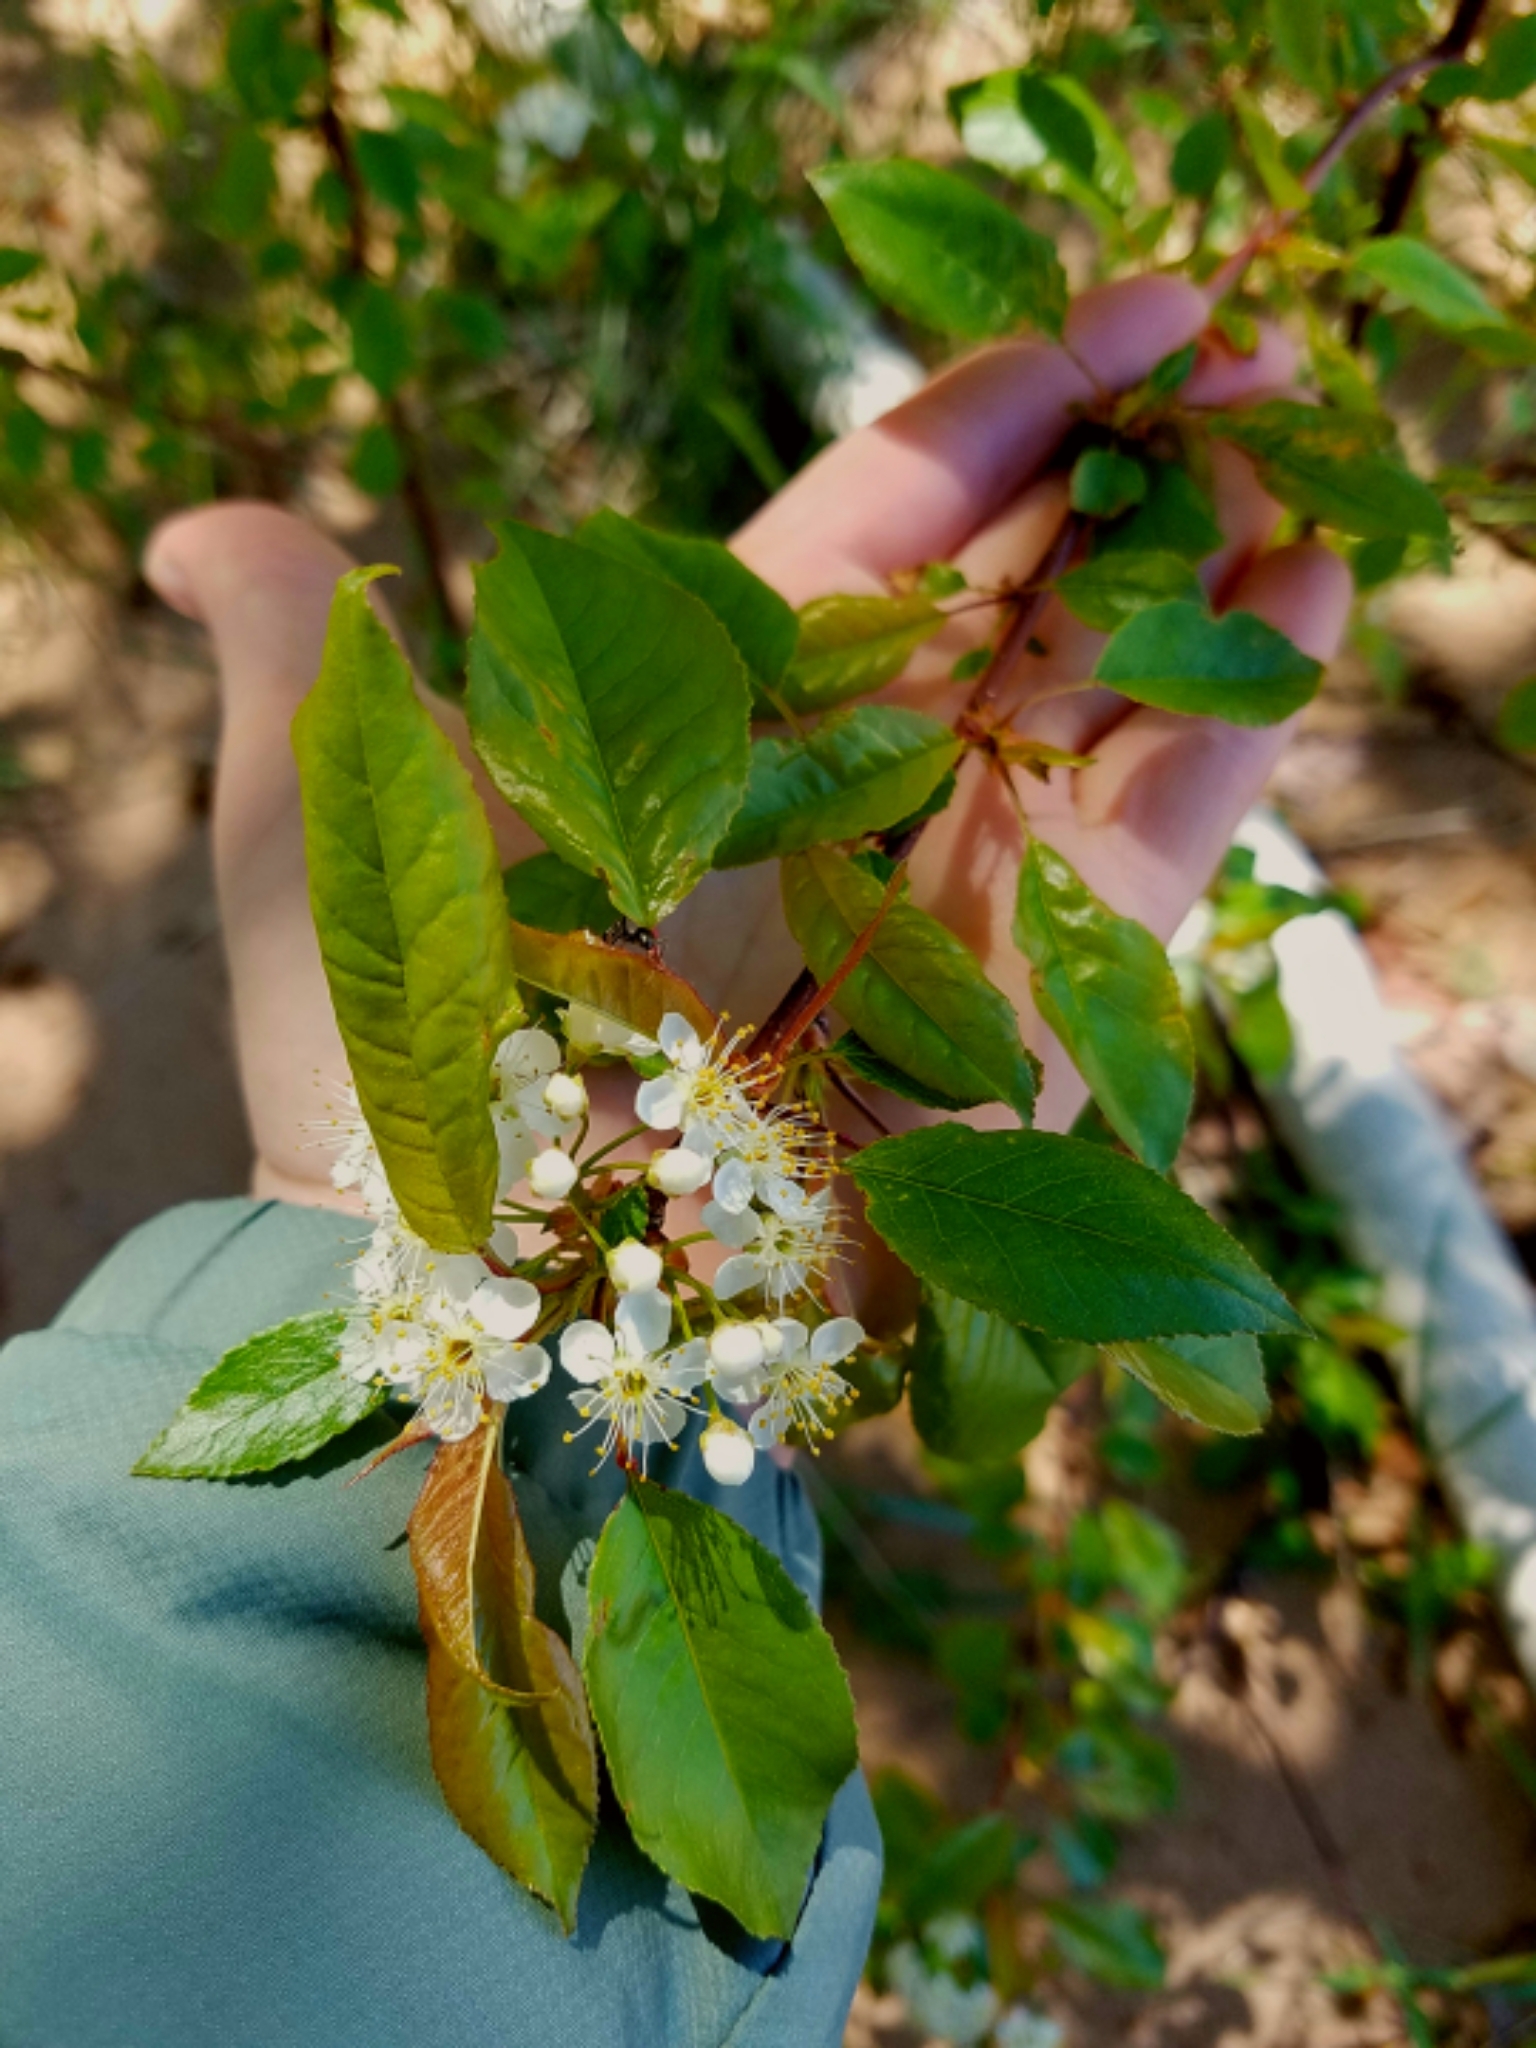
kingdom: Plantae
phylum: Tracheophyta
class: Magnoliopsida
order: Rosales
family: Rosaceae
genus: Prunus
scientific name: Prunus pensylvanica
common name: Pin cherry
